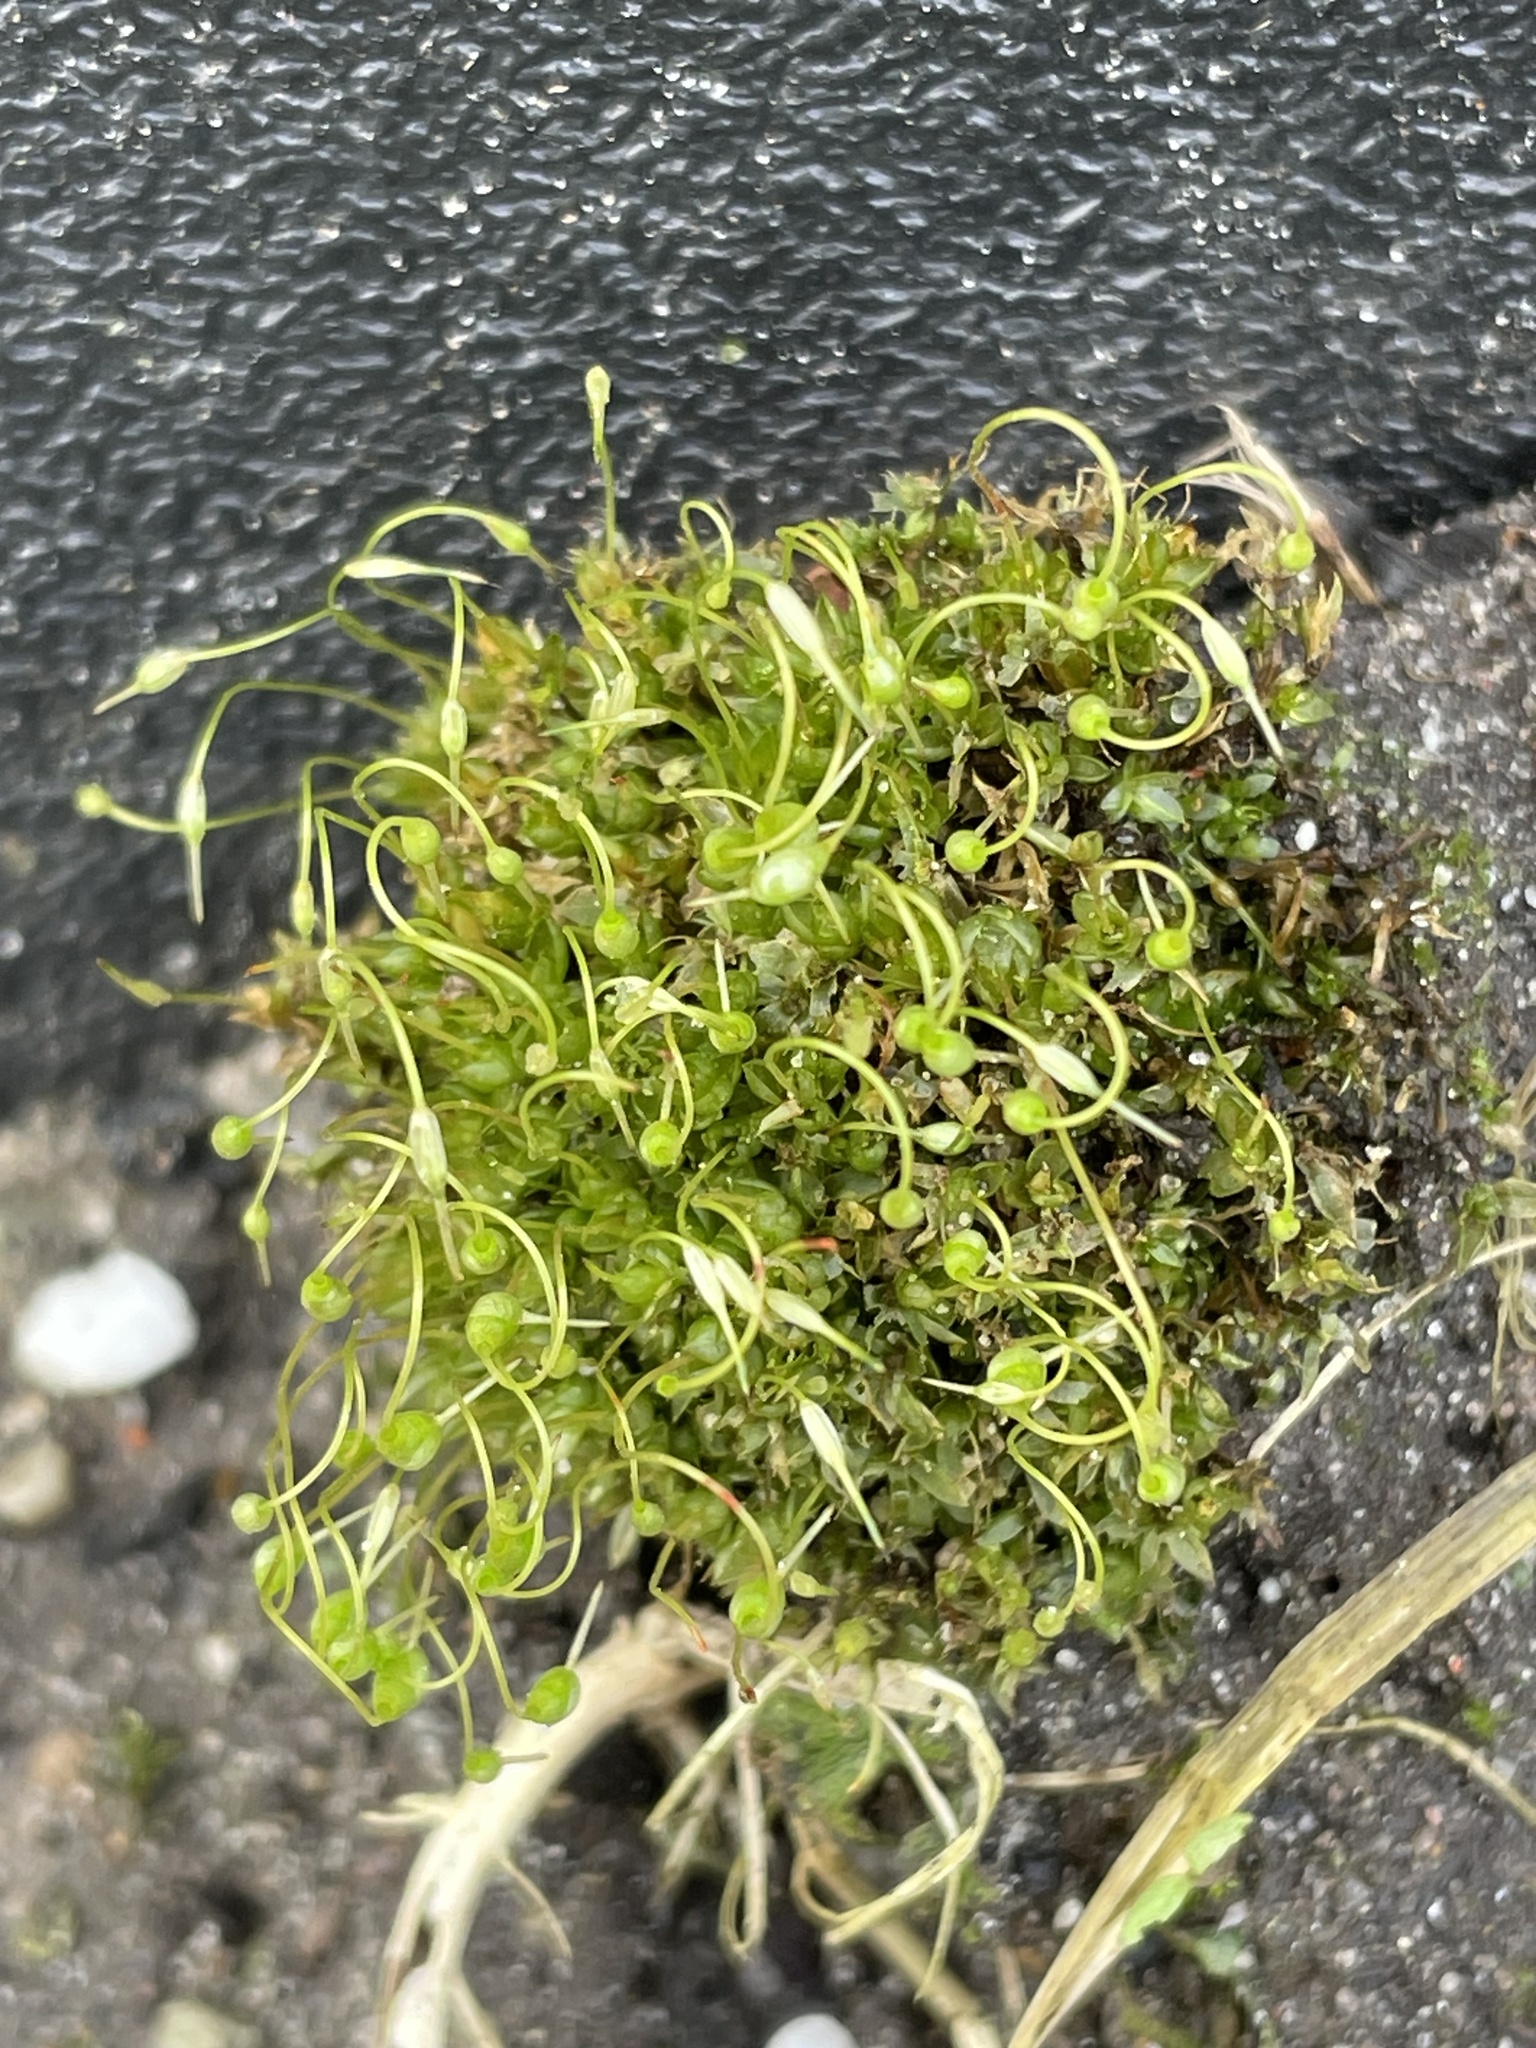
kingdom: Plantae
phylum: Bryophyta
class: Bryopsida
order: Funariales
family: Funariaceae
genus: Funaria
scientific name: Funaria hygrometrica
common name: Common cord moss
